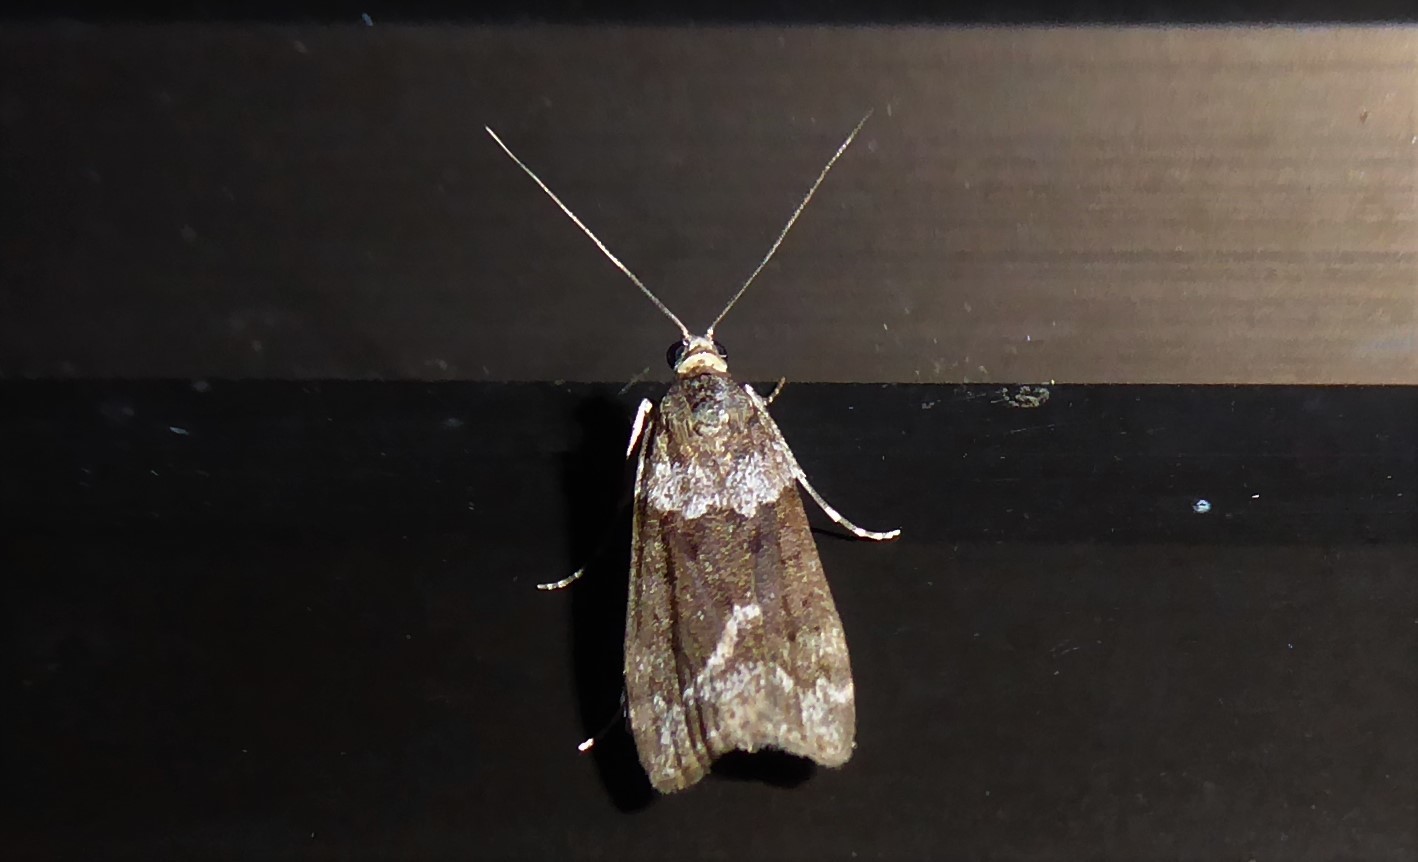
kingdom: Animalia
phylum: Arthropoda
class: Insecta
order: Lepidoptera
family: Crambidae
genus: Eudonia
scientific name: Eudonia submarginalis
